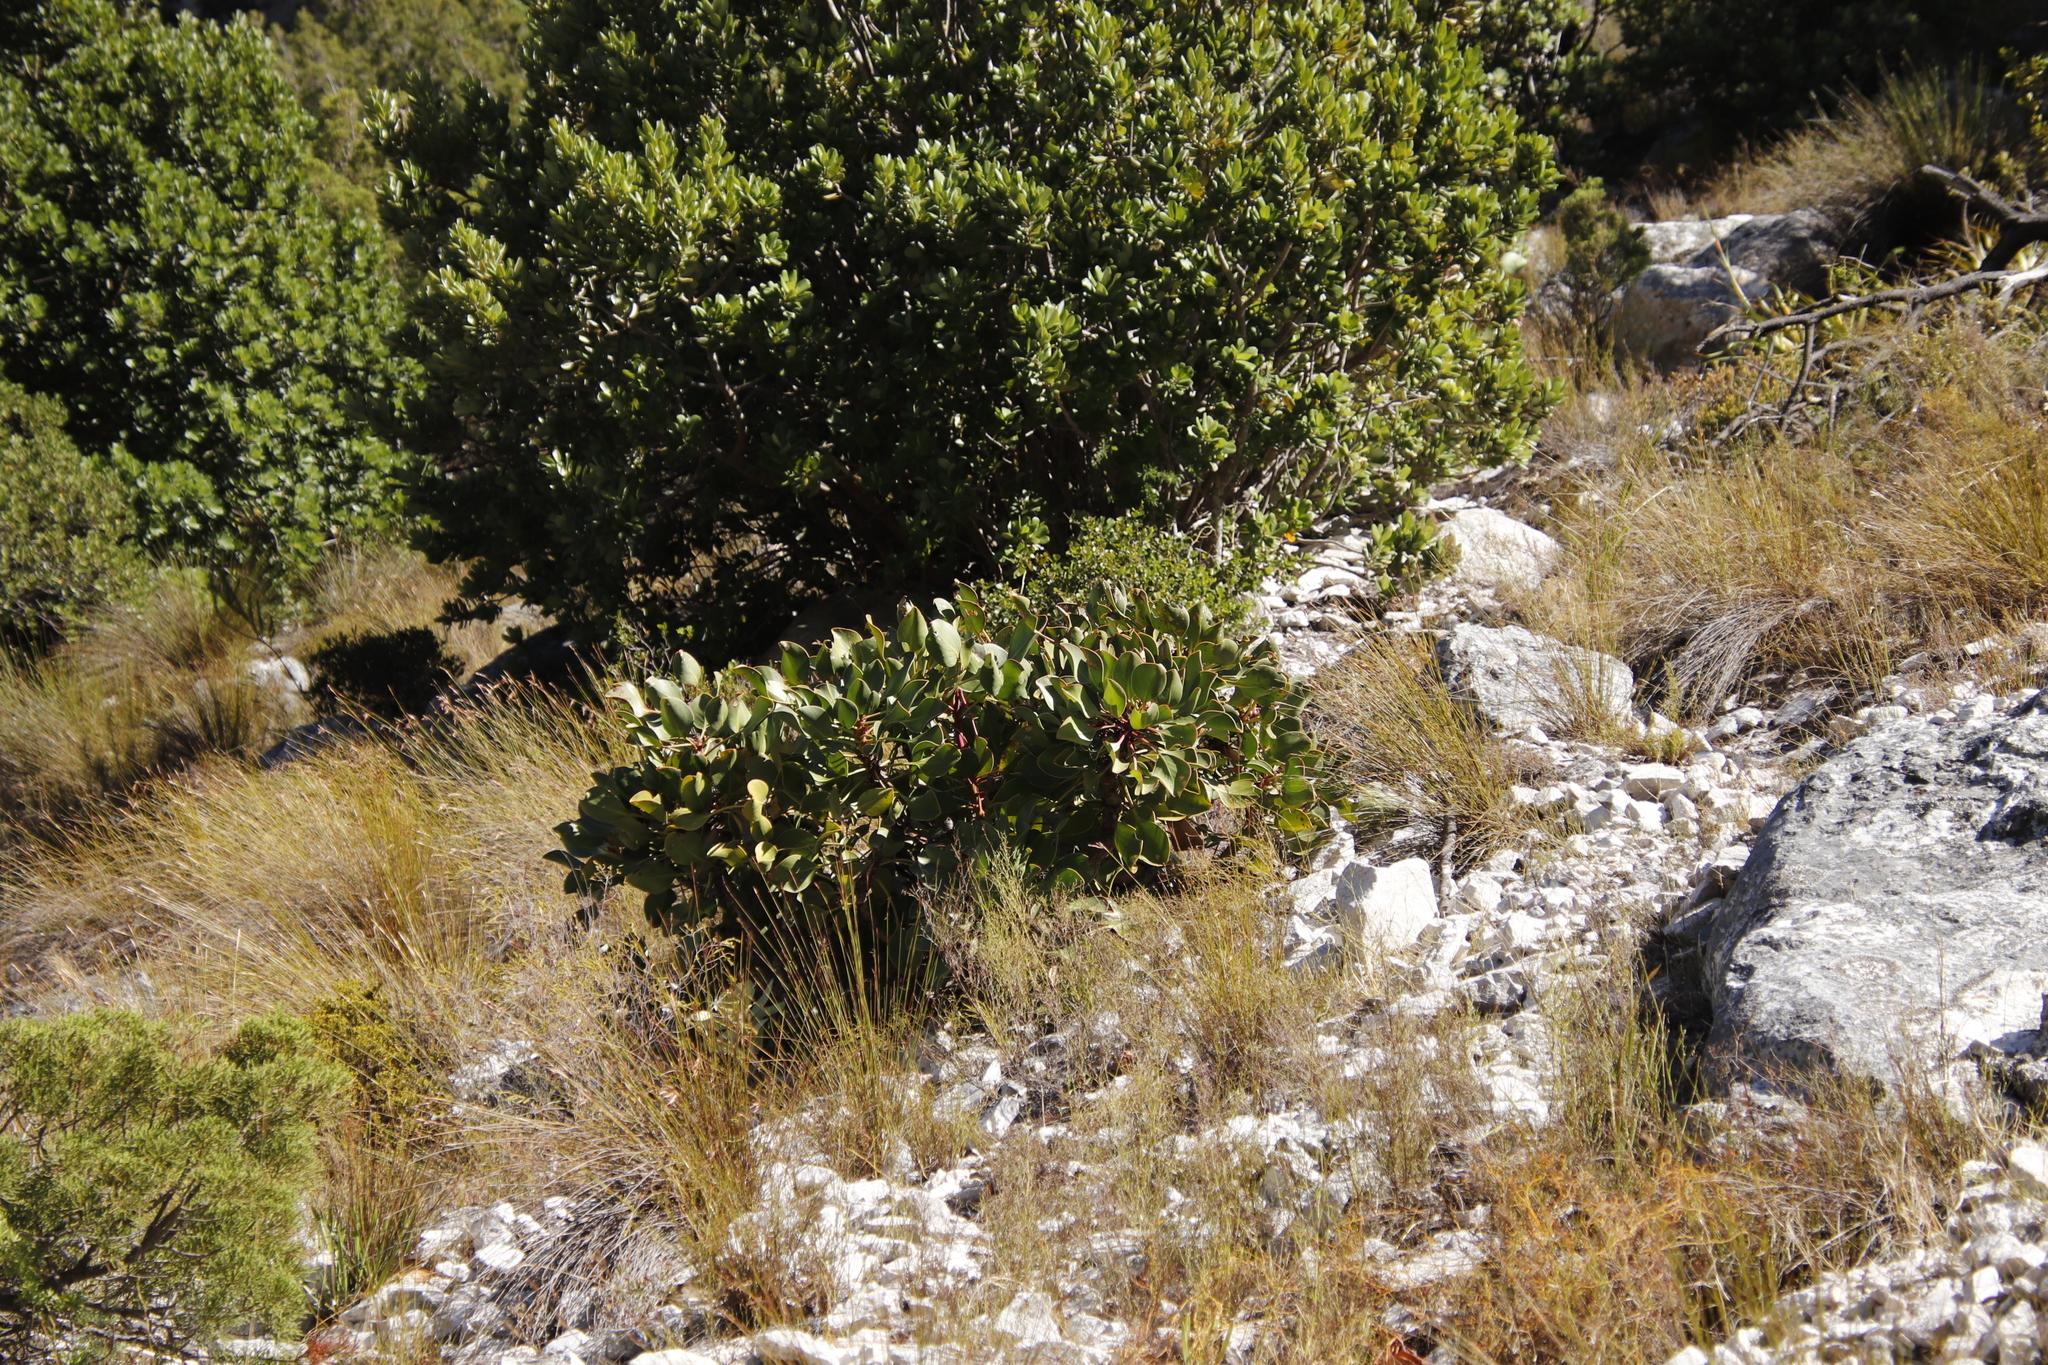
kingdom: Plantae
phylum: Tracheophyta
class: Magnoliopsida
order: Proteales
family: Proteaceae
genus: Protea
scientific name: Protea cynaroides
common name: King protea
